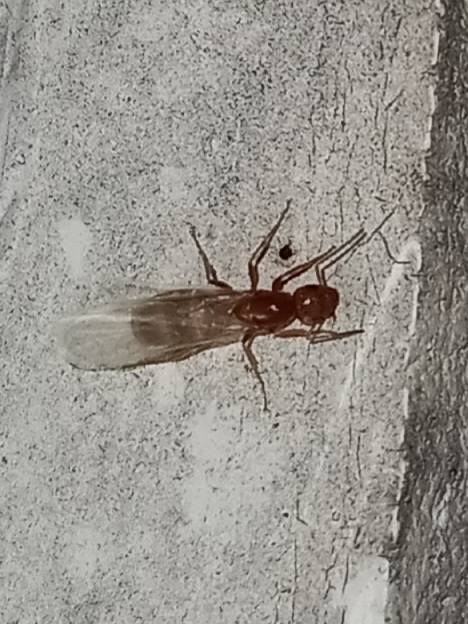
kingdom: Animalia
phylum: Arthropoda
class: Insecta
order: Hymenoptera
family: Formicidae
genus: Dorymyrmex
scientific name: Dorymyrmex bureni
